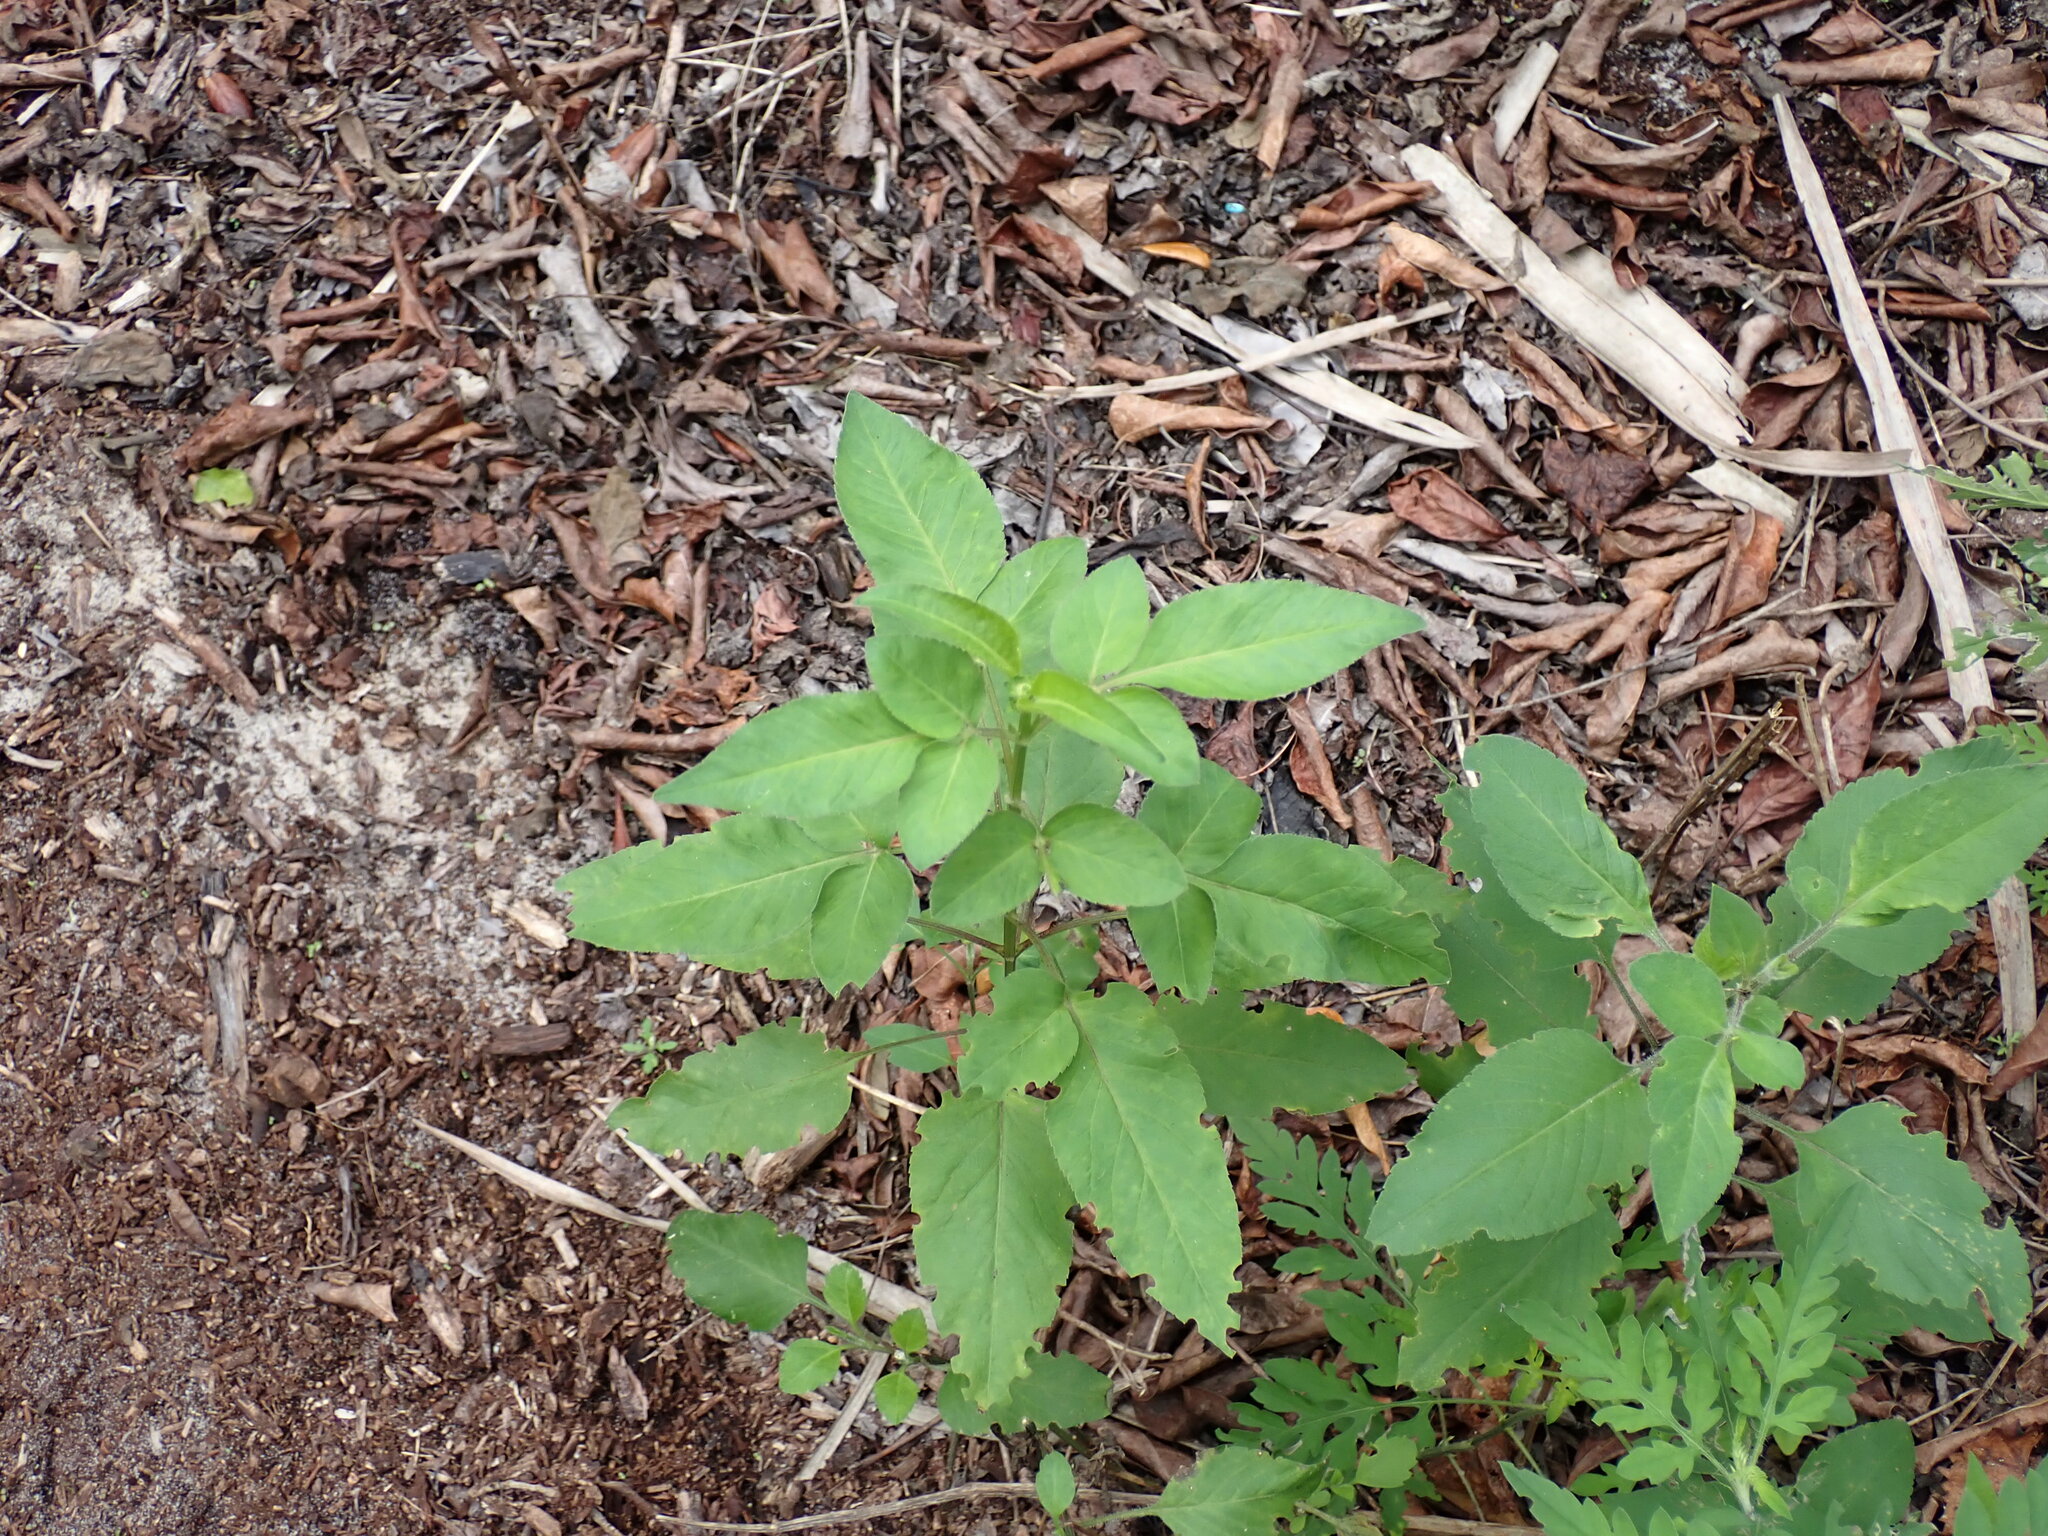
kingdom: Plantae
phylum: Tracheophyta
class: Magnoliopsida
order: Asterales
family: Asteraceae
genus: Bidens
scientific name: Bidens alba
